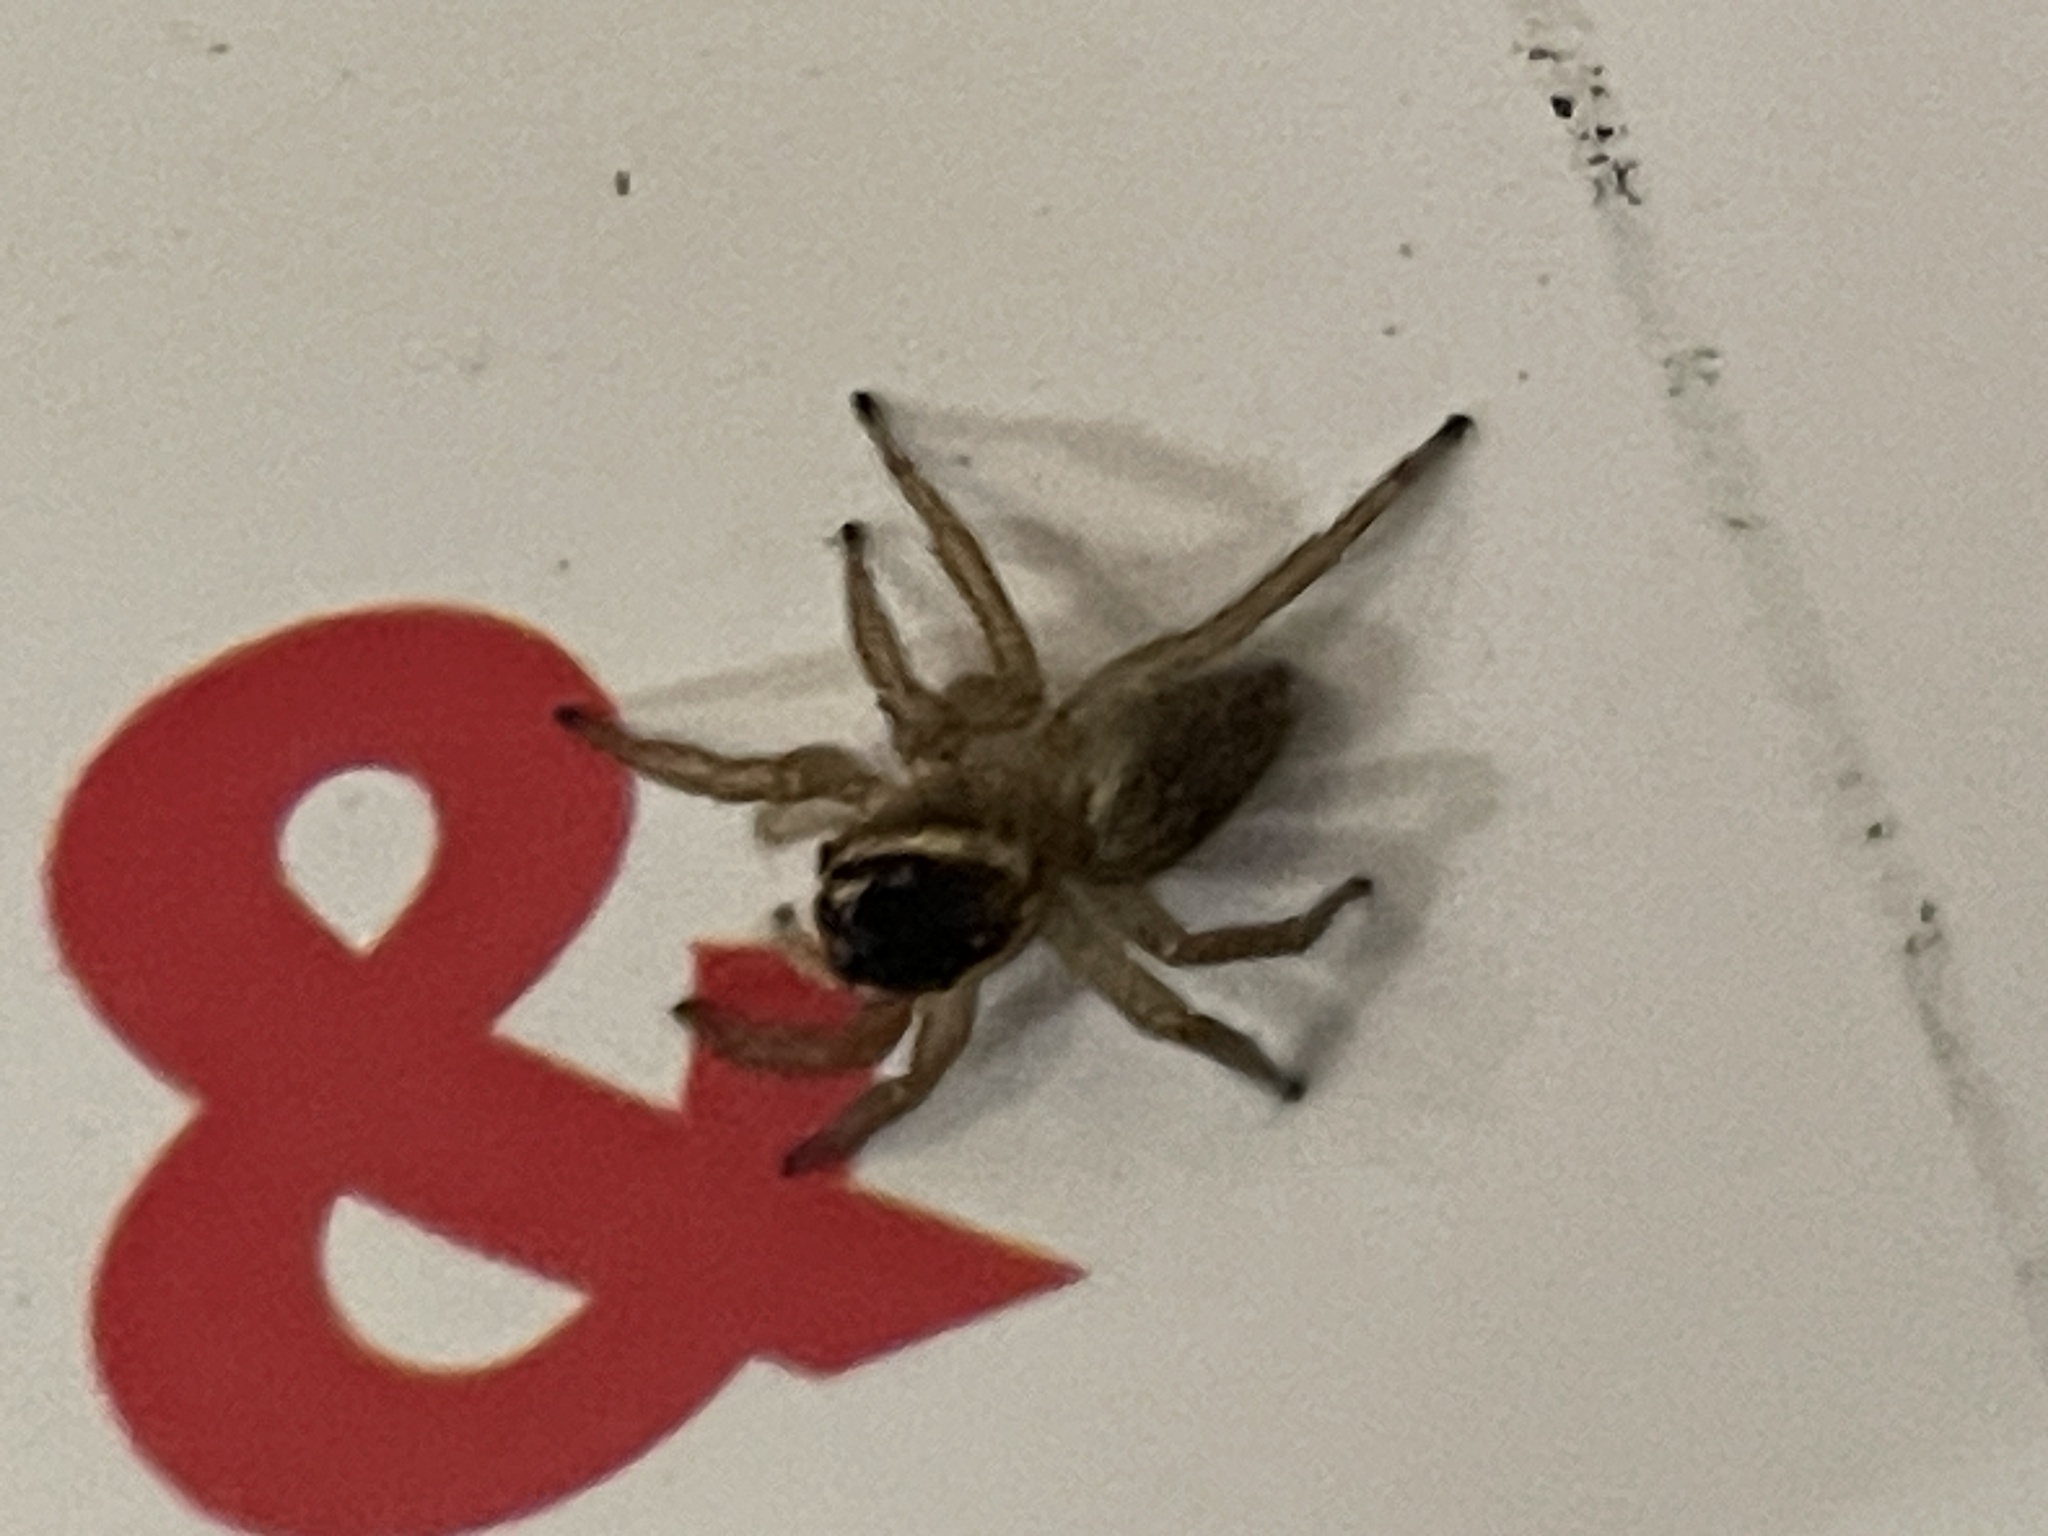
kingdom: Animalia
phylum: Arthropoda
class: Arachnida
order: Araneae
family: Salticidae
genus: Maratus
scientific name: Maratus griseus
